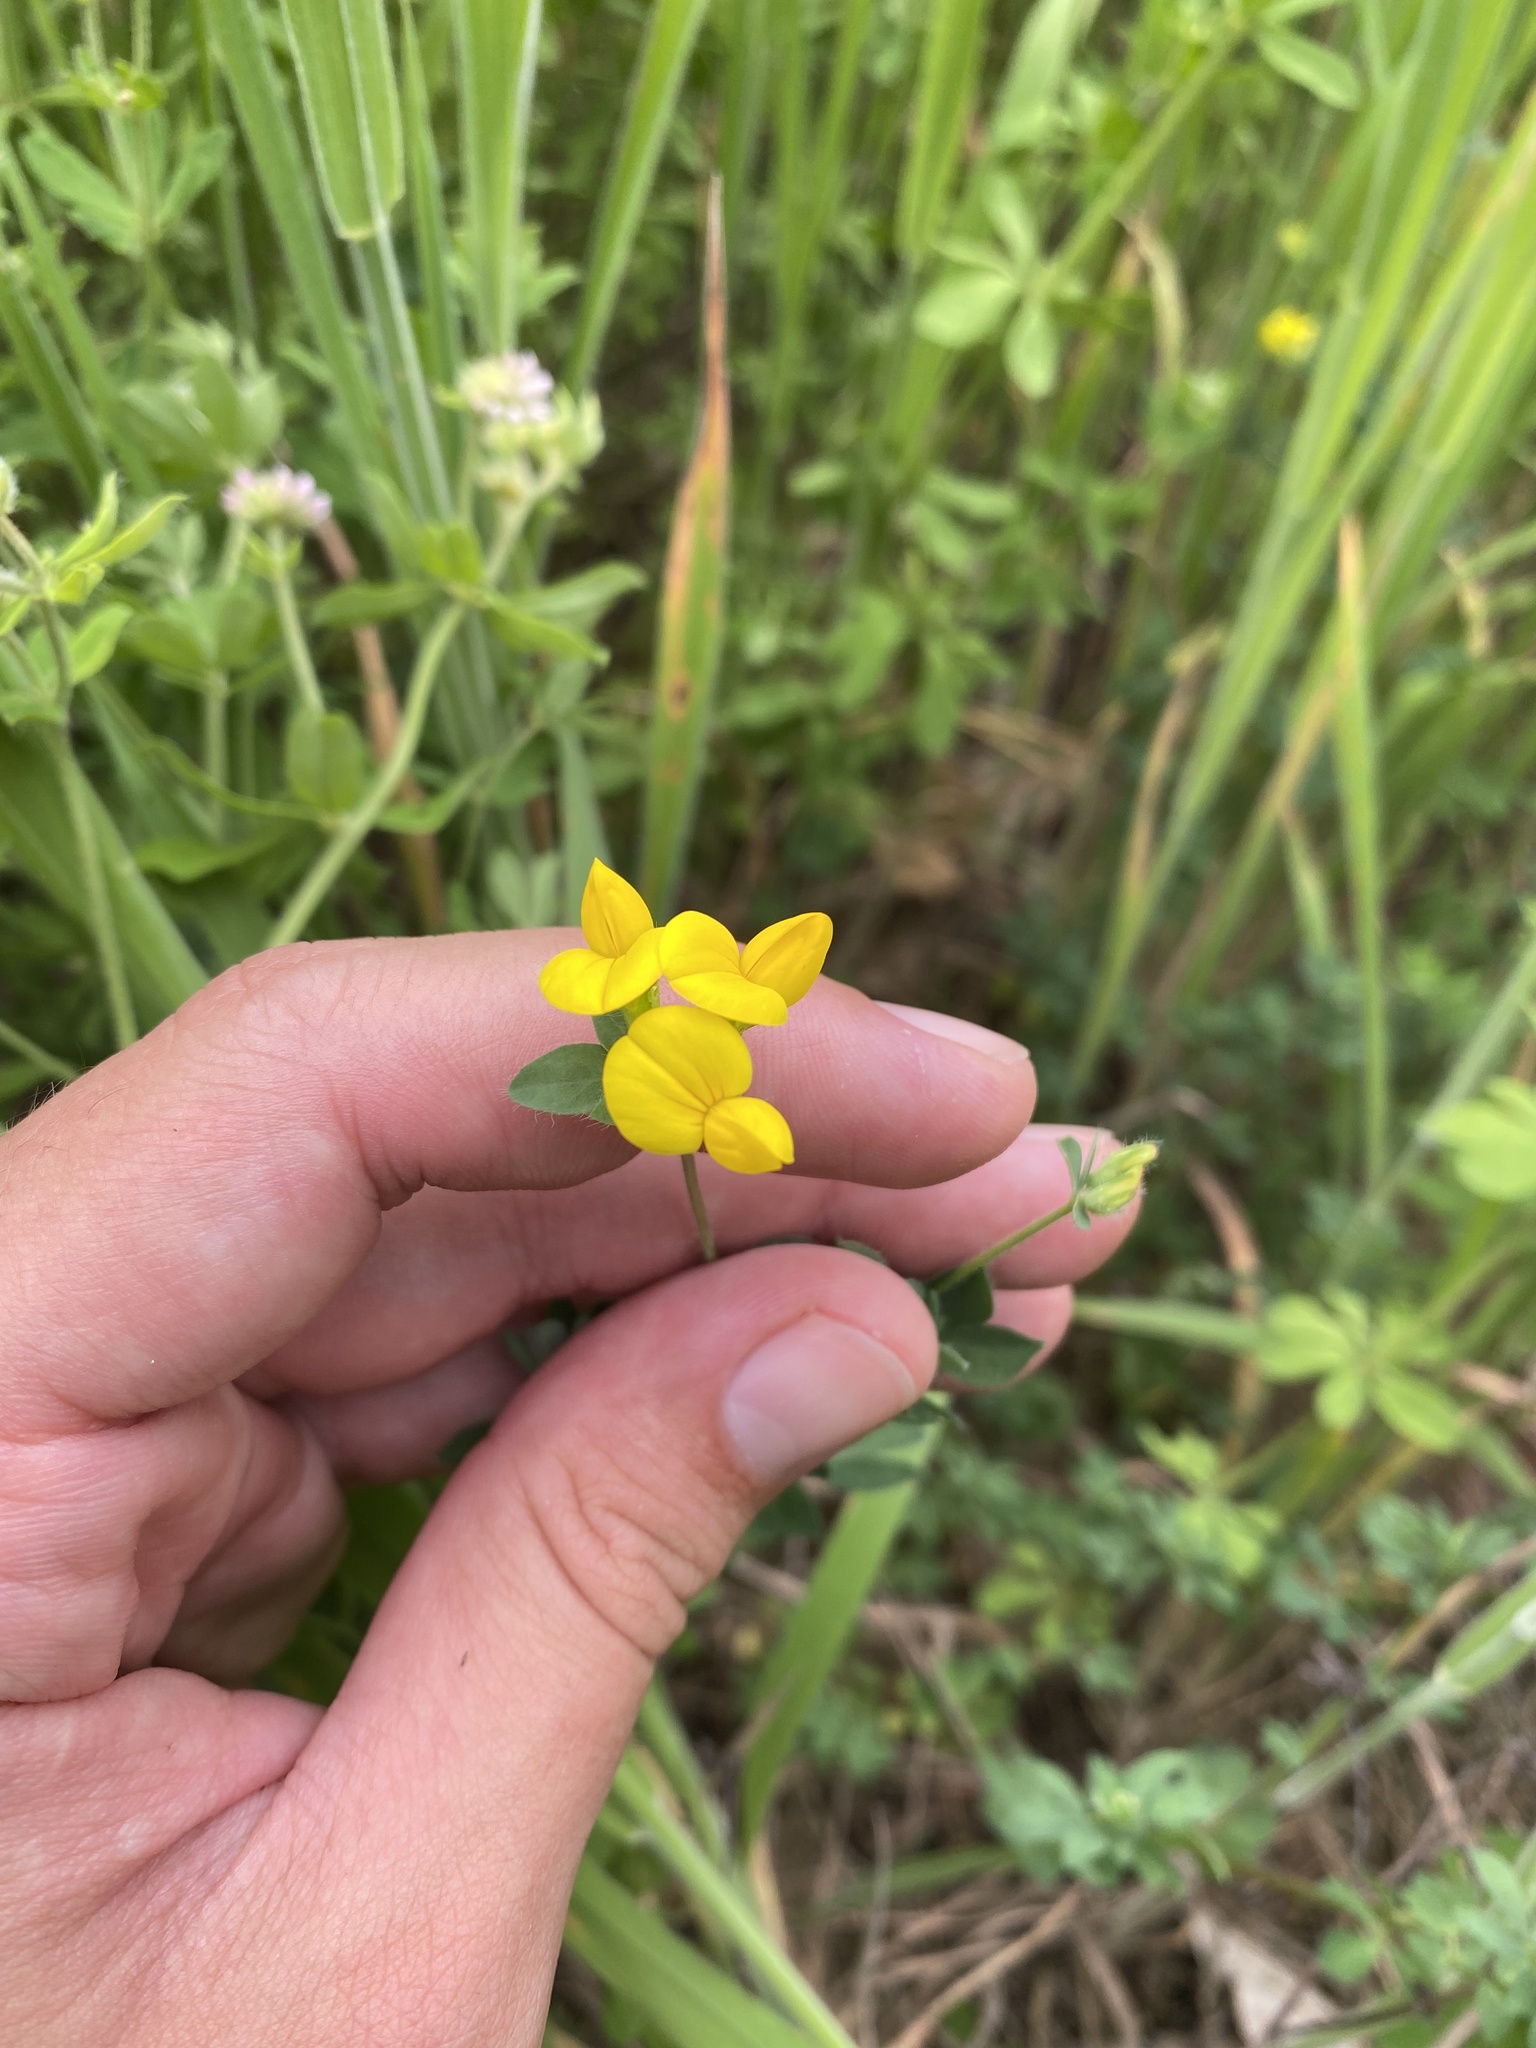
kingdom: Plantae
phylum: Tracheophyta
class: Magnoliopsida
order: Fabales
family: Fabaceae
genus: Lotus
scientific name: Lotus corniculatus
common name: Common bird's-foot-trefoil
